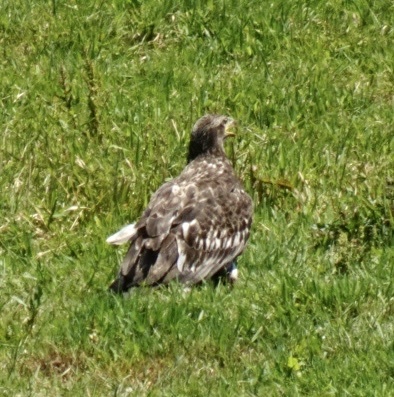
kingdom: Animalia
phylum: Chordata
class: Aves
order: Accipitriformes
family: Accipitridae
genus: Haliaeetus
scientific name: Haliaeetus leucocephalus
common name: Bald eagle
